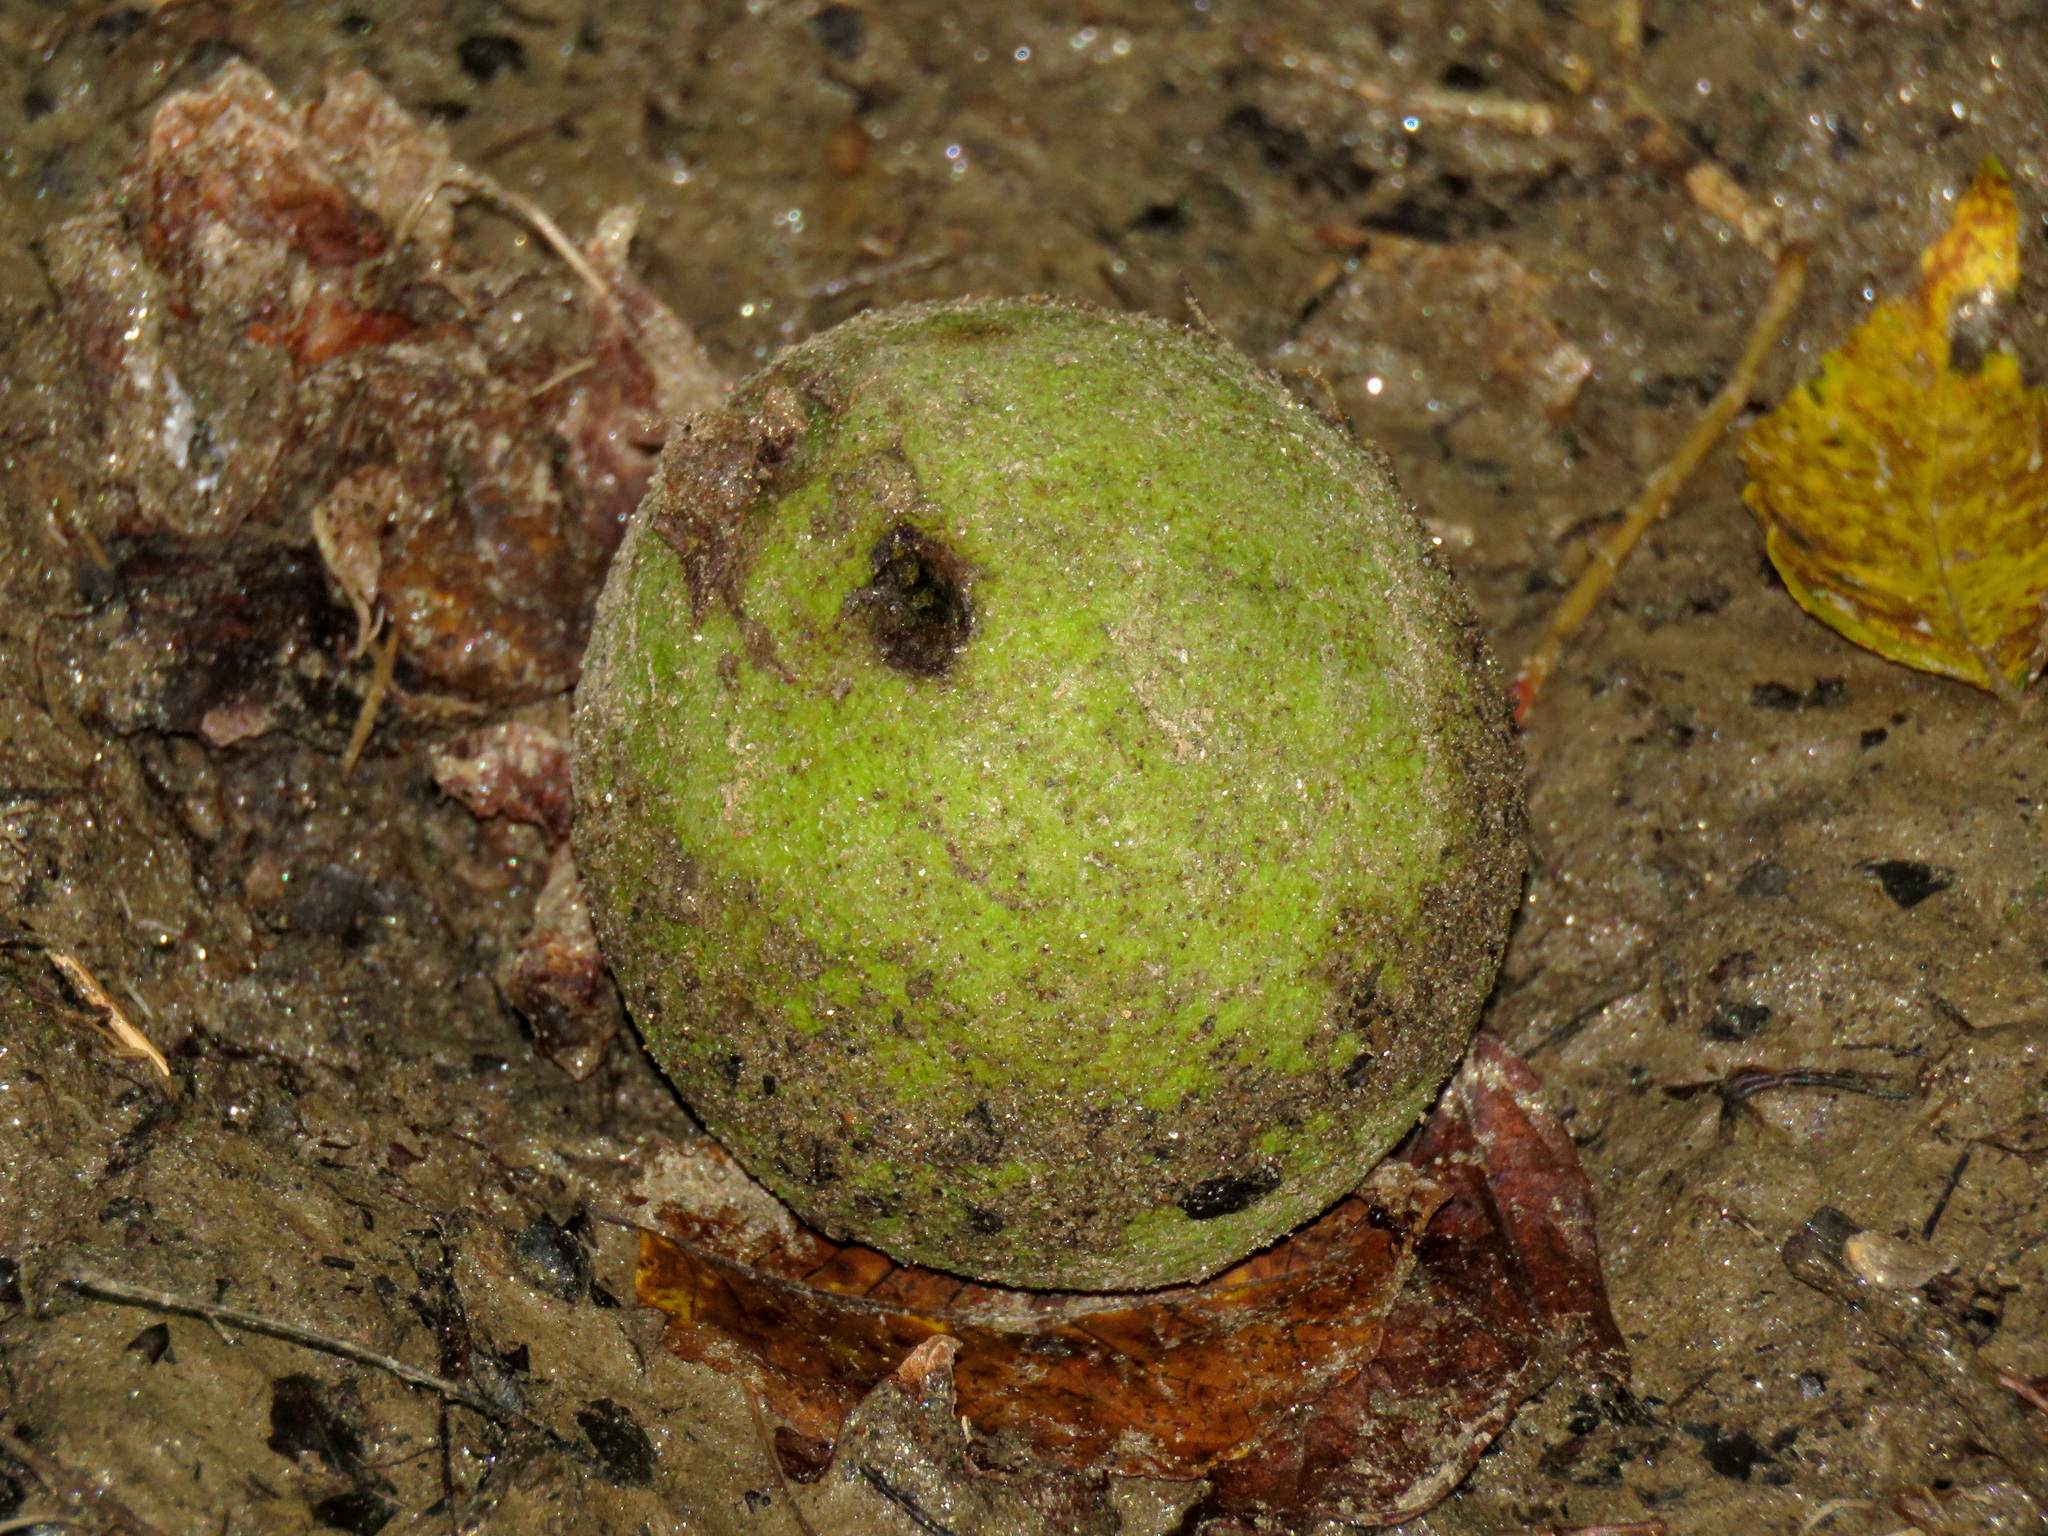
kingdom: Plantae
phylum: Tracheophyta
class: Magnoliopsida
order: Fagales
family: Juglandaceae
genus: Juglans
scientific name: Juglans nigra
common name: Black walnut
